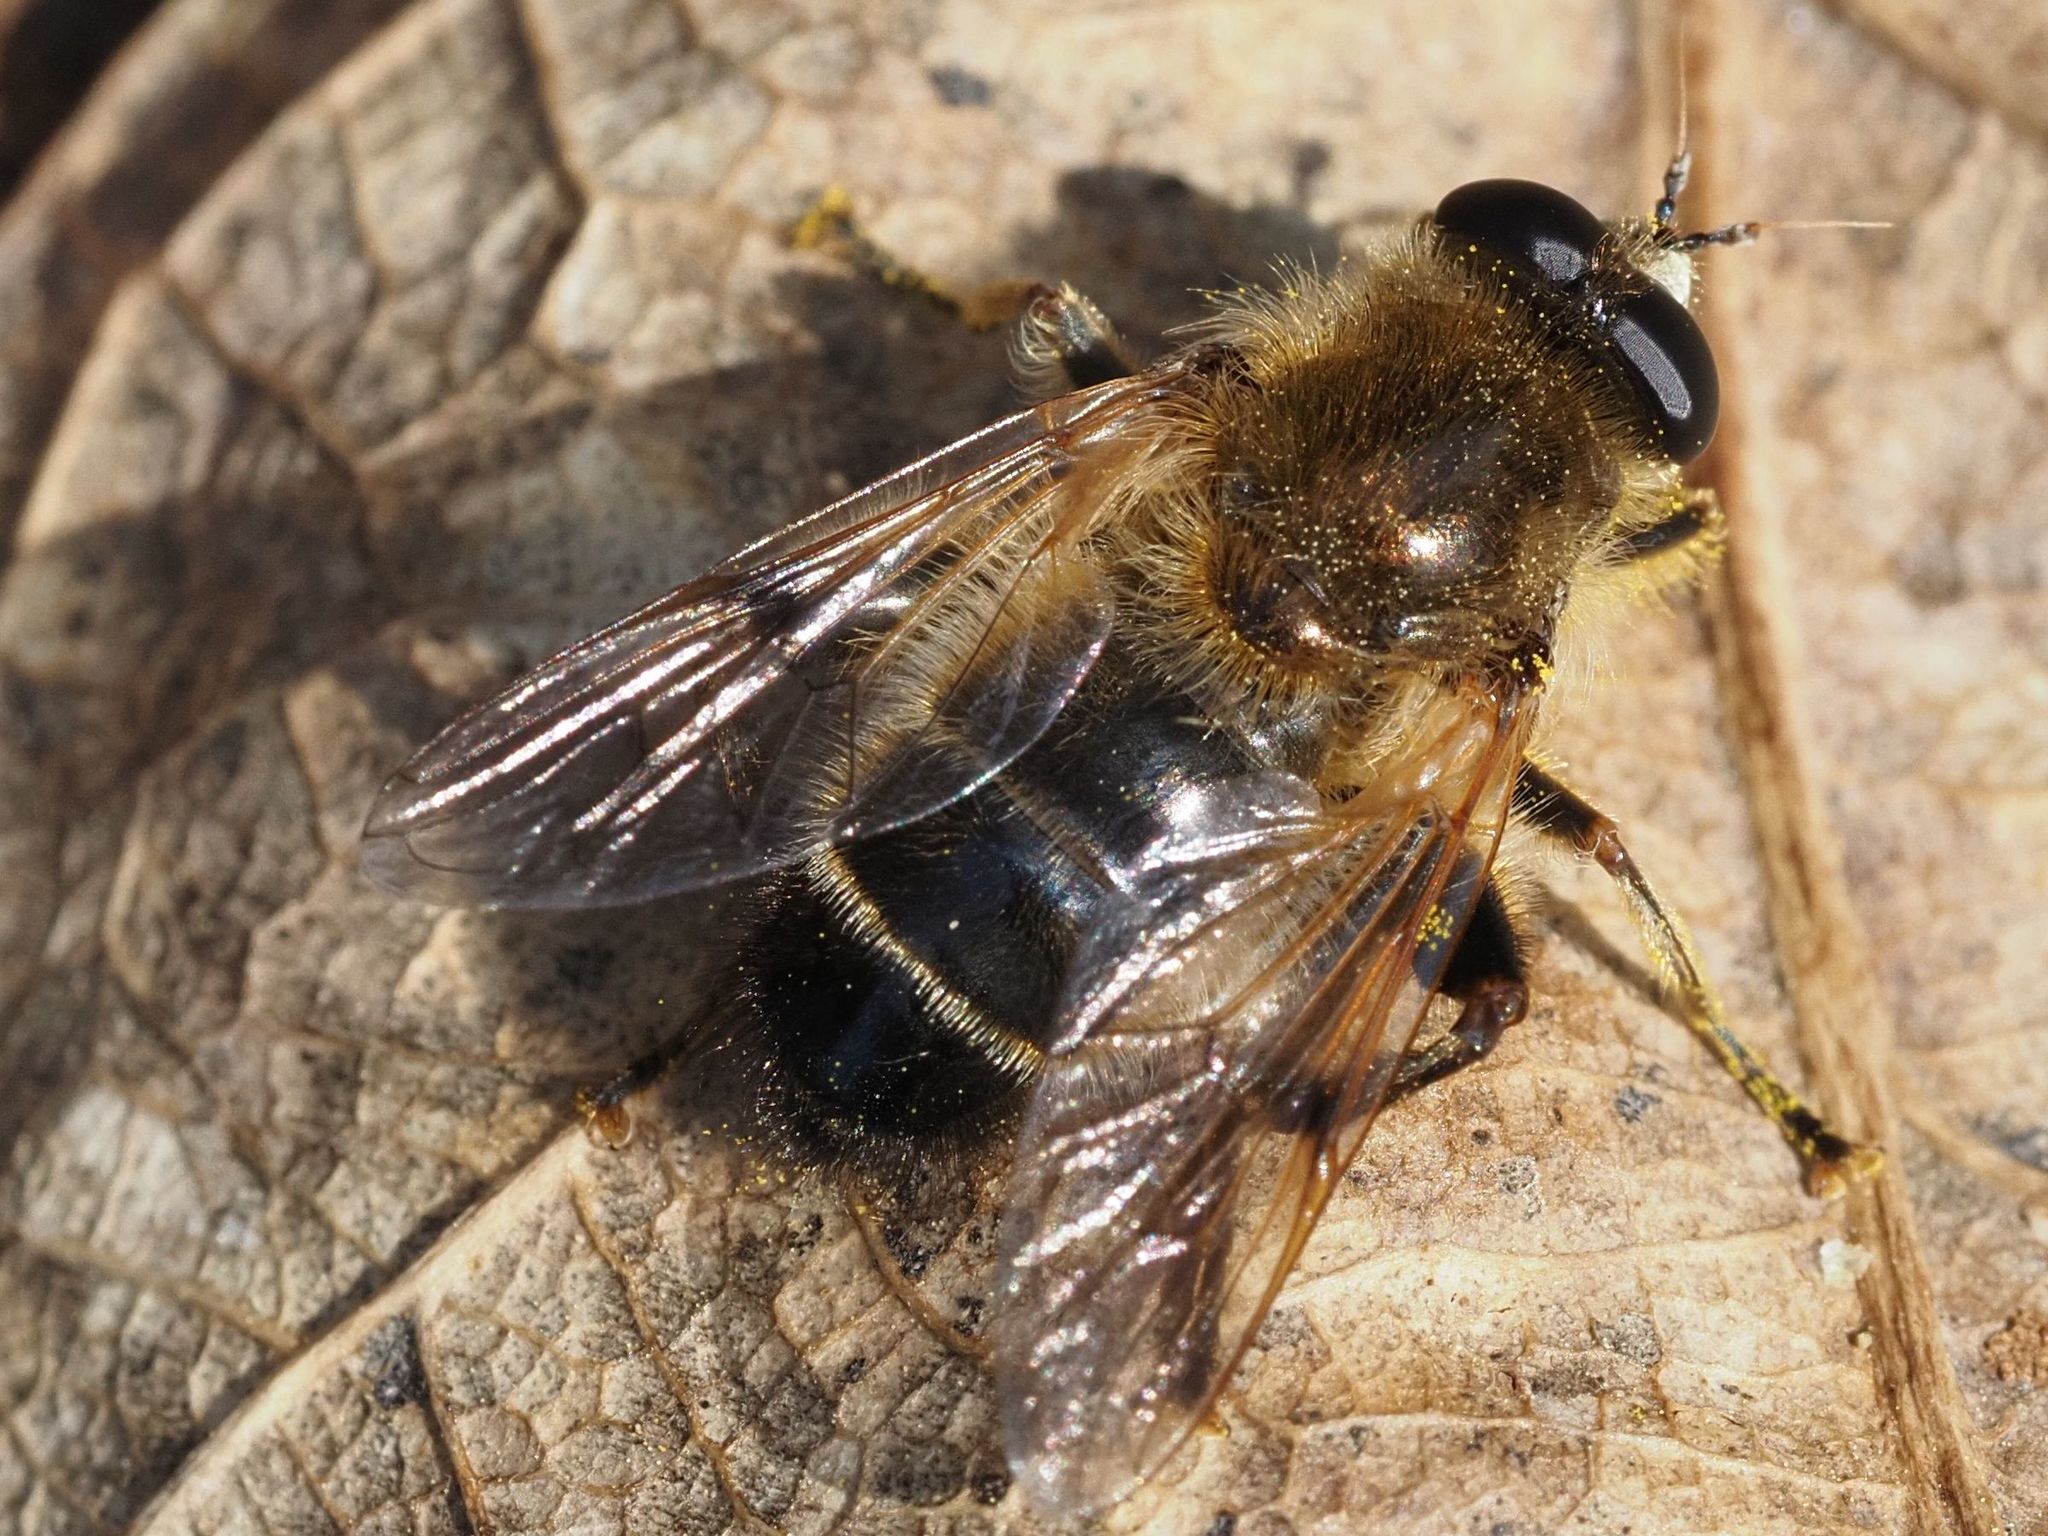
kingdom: Animalia
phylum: Arthropoda
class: Insecta
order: Diptera
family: Syrphidae
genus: Brachypalpus
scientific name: Brachypalpus valgus
